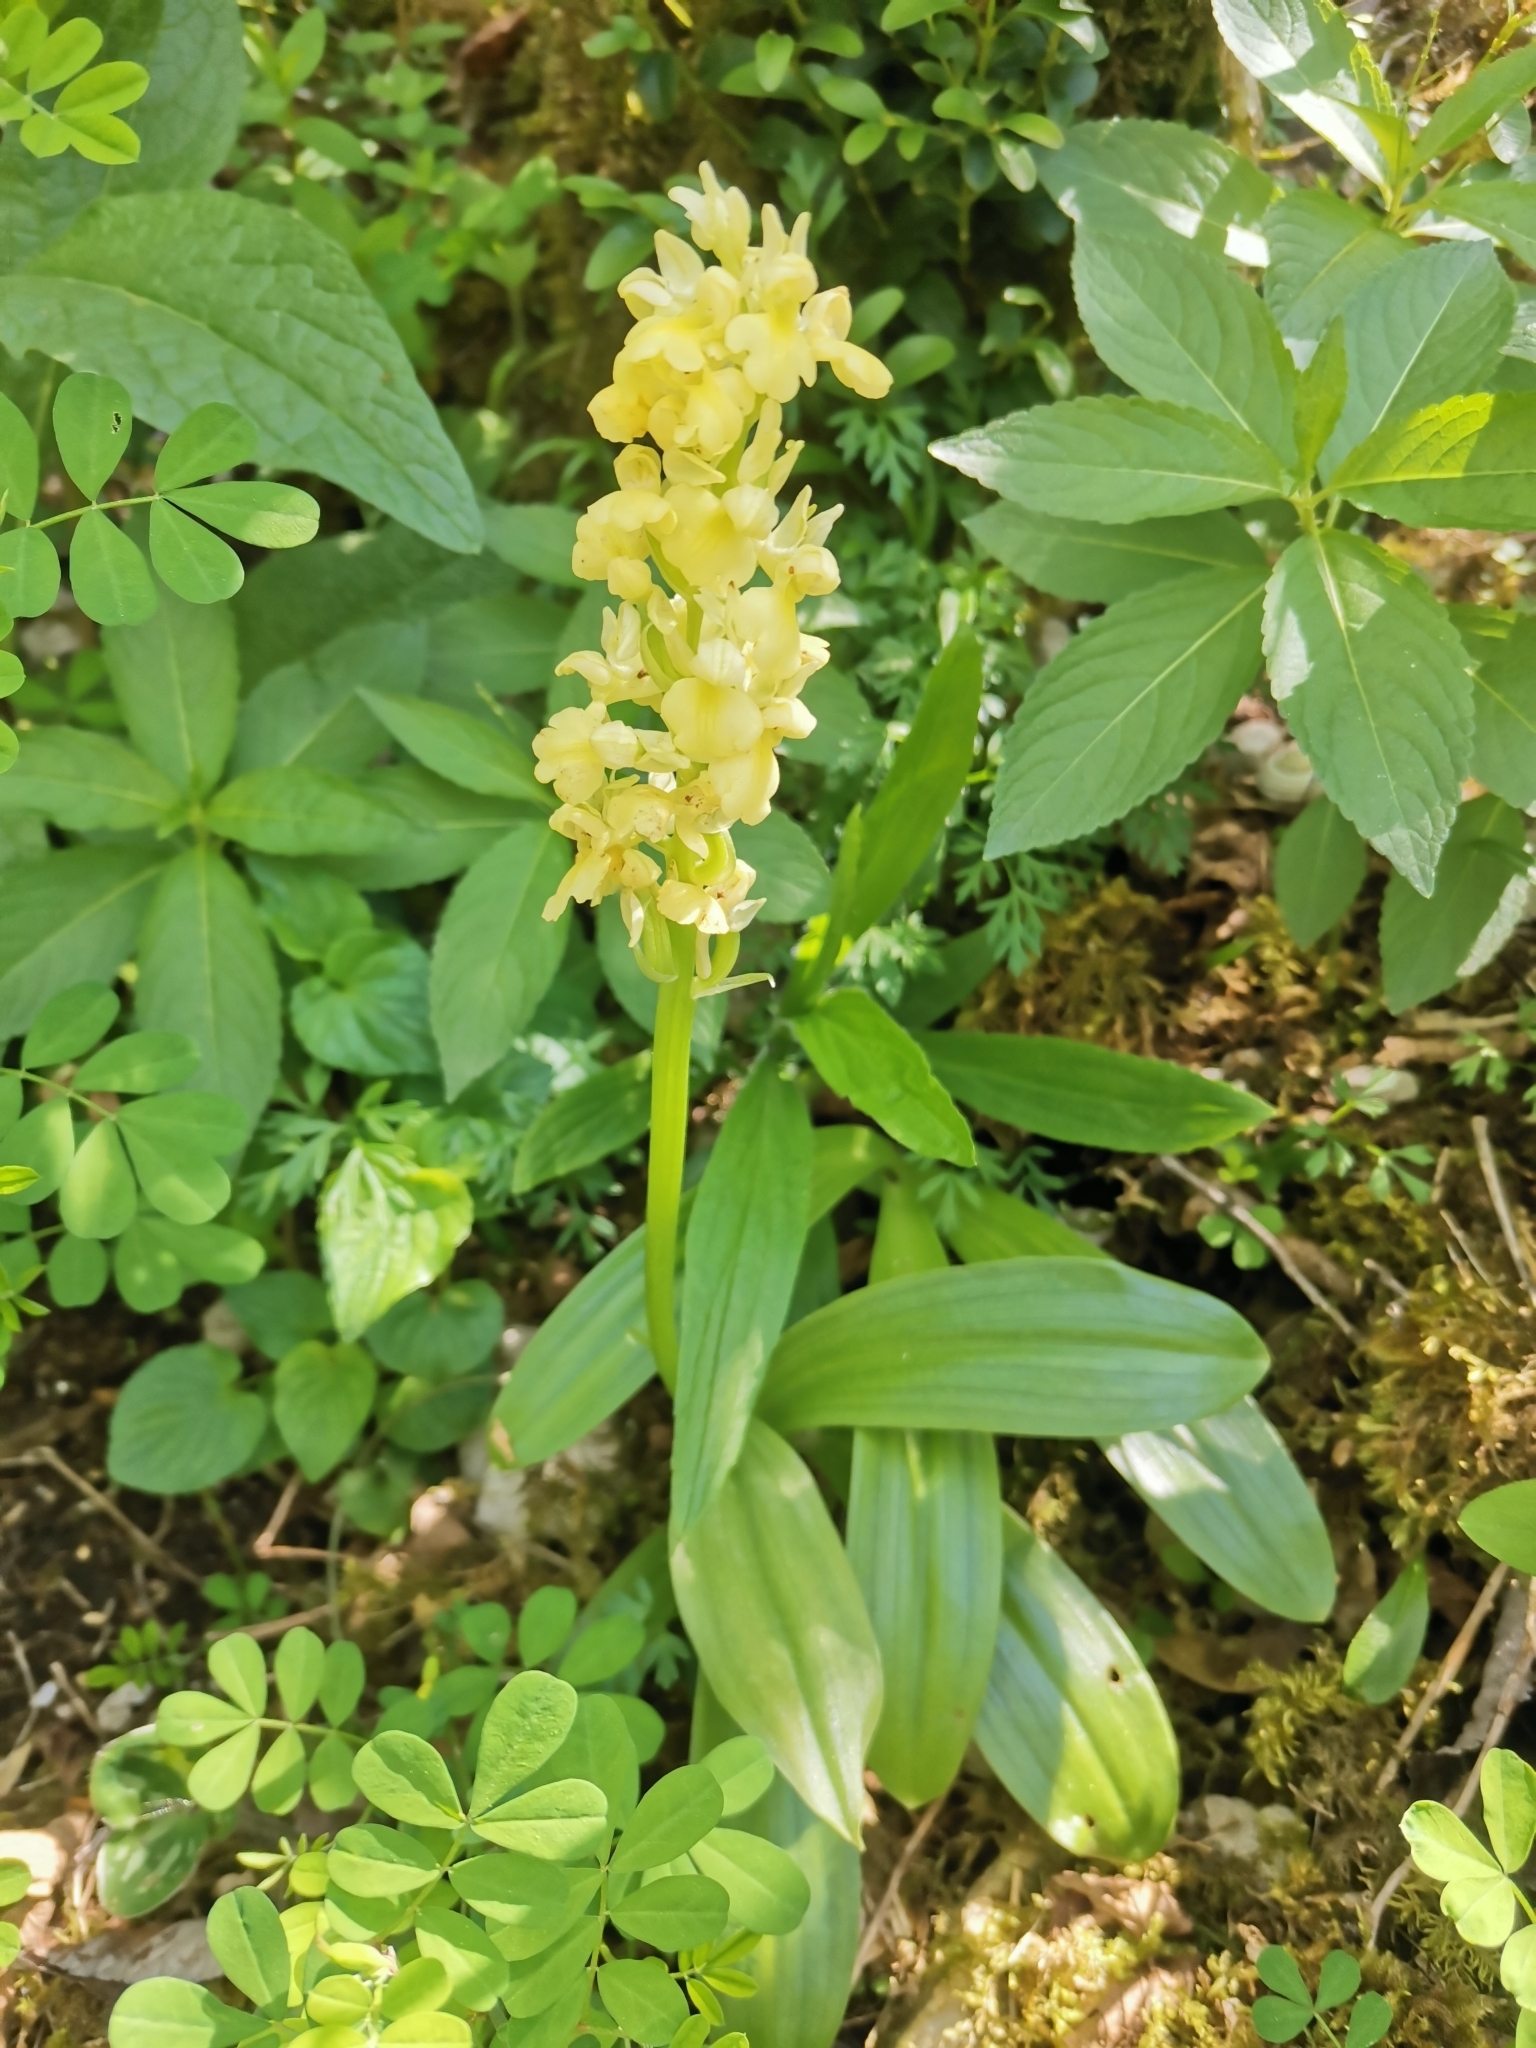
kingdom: Plantae
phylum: Tracheophyta
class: Liliopsida
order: Asparagales
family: Orchidaceae
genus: Orchis
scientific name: Orchis pallens
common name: Pale-flowered orchid
